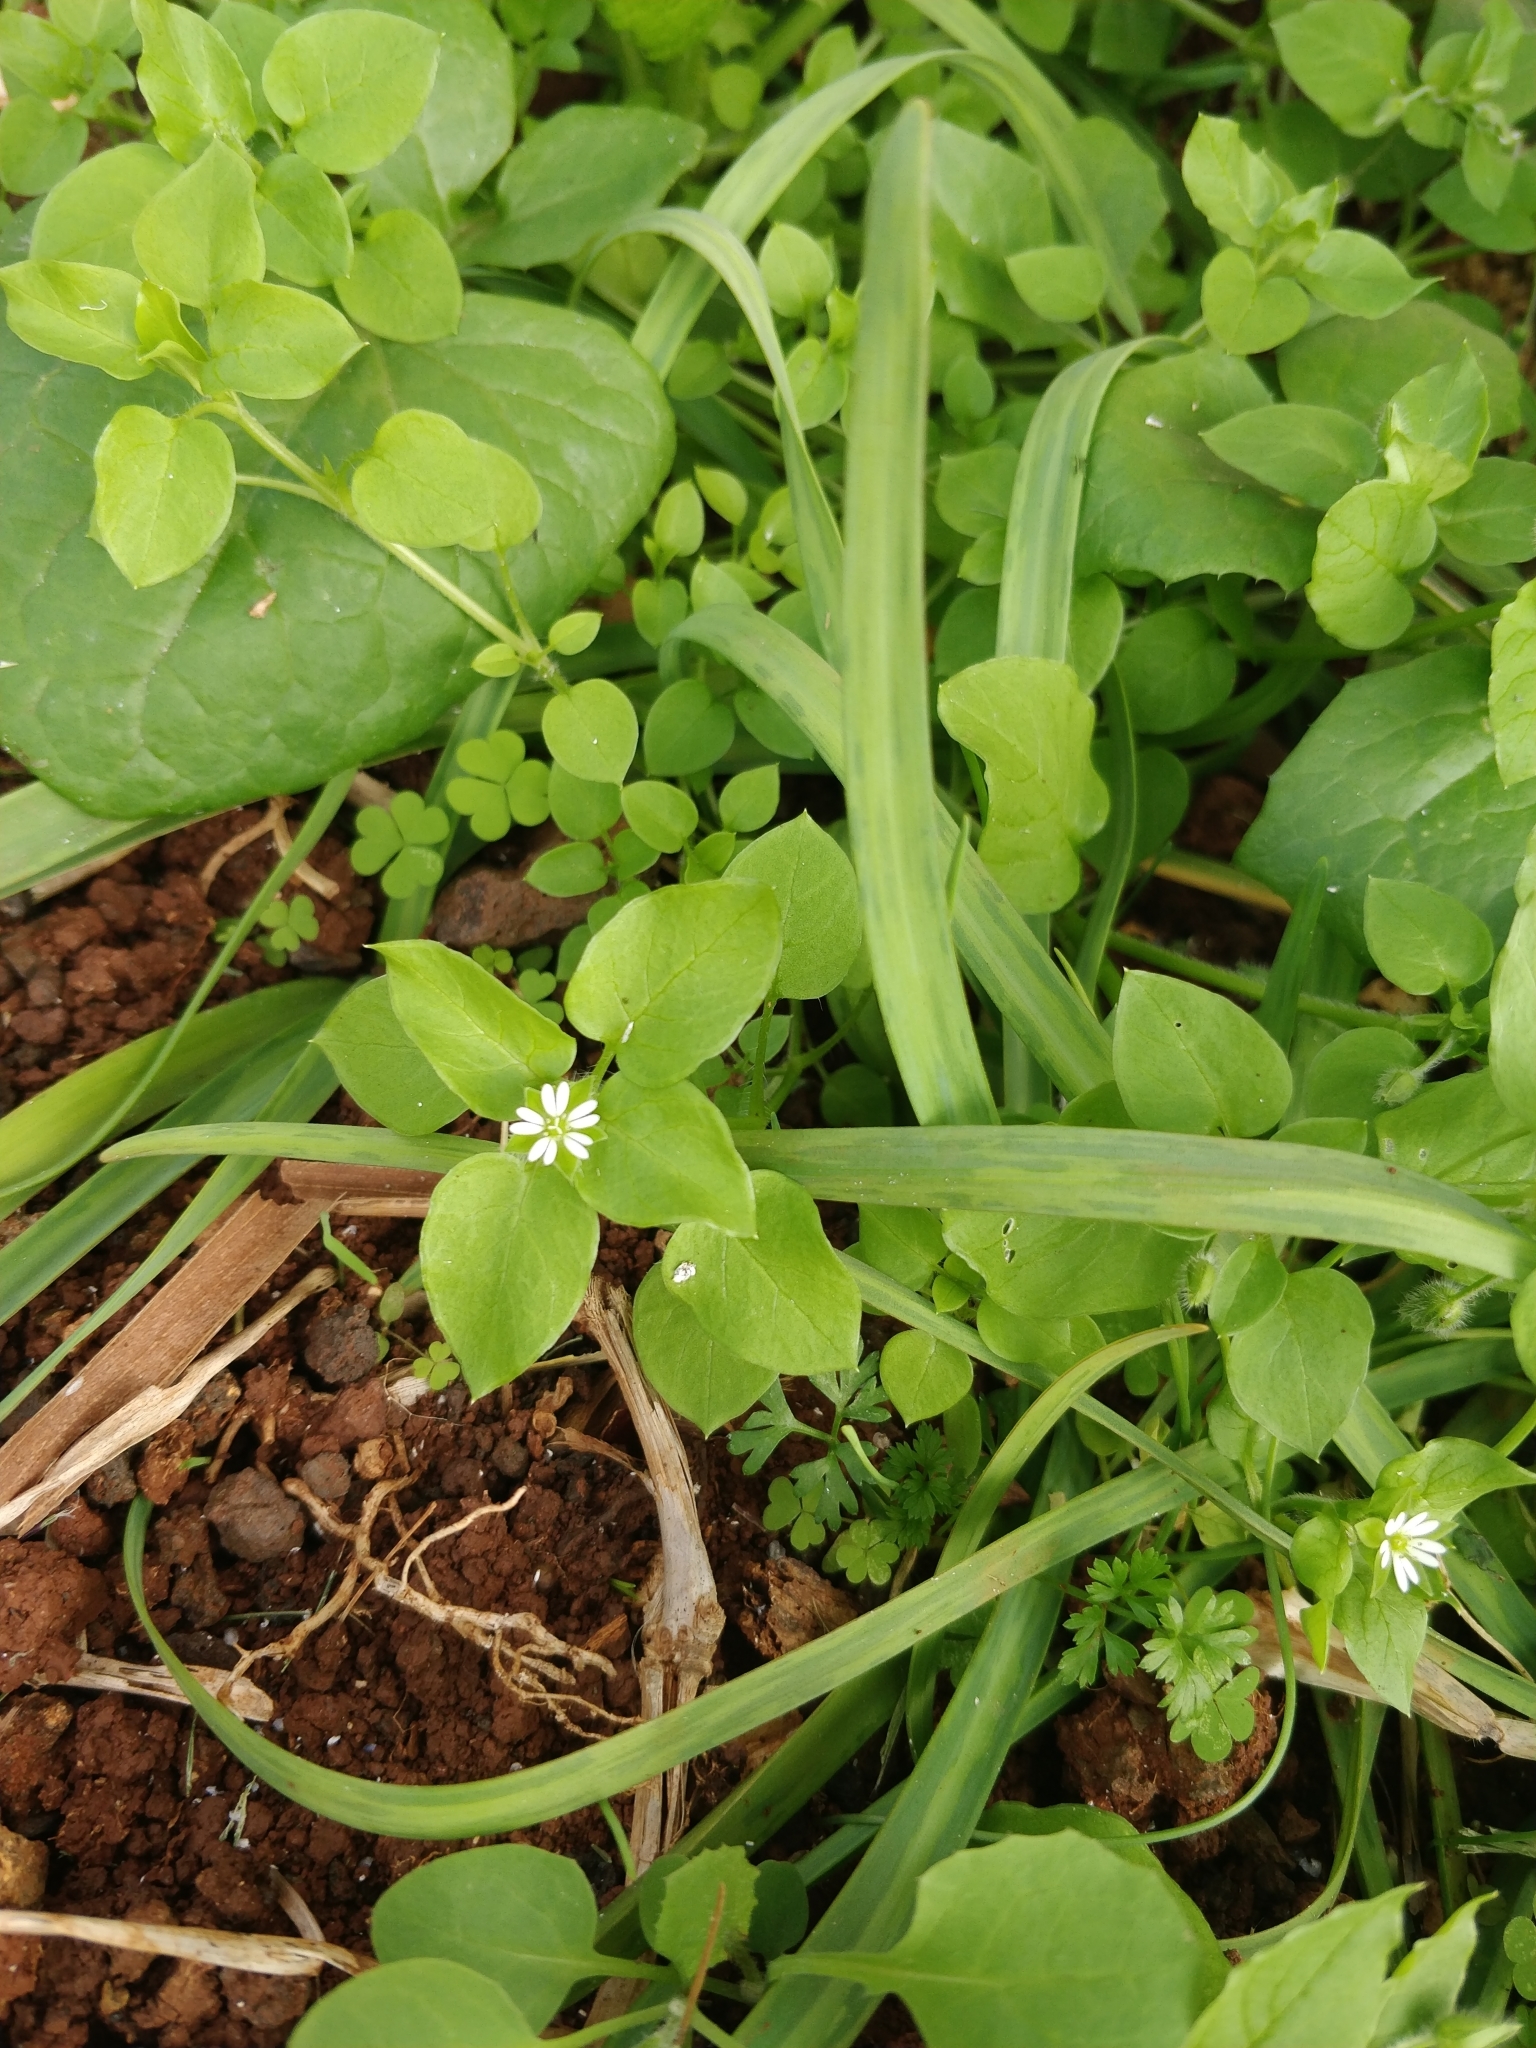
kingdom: Plantae
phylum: Tracheophyta
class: Magnoliopsida
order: Caryophyllales
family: Caryophyllaceae
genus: Stellaria
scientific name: Stellaria media
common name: Common chickweed
